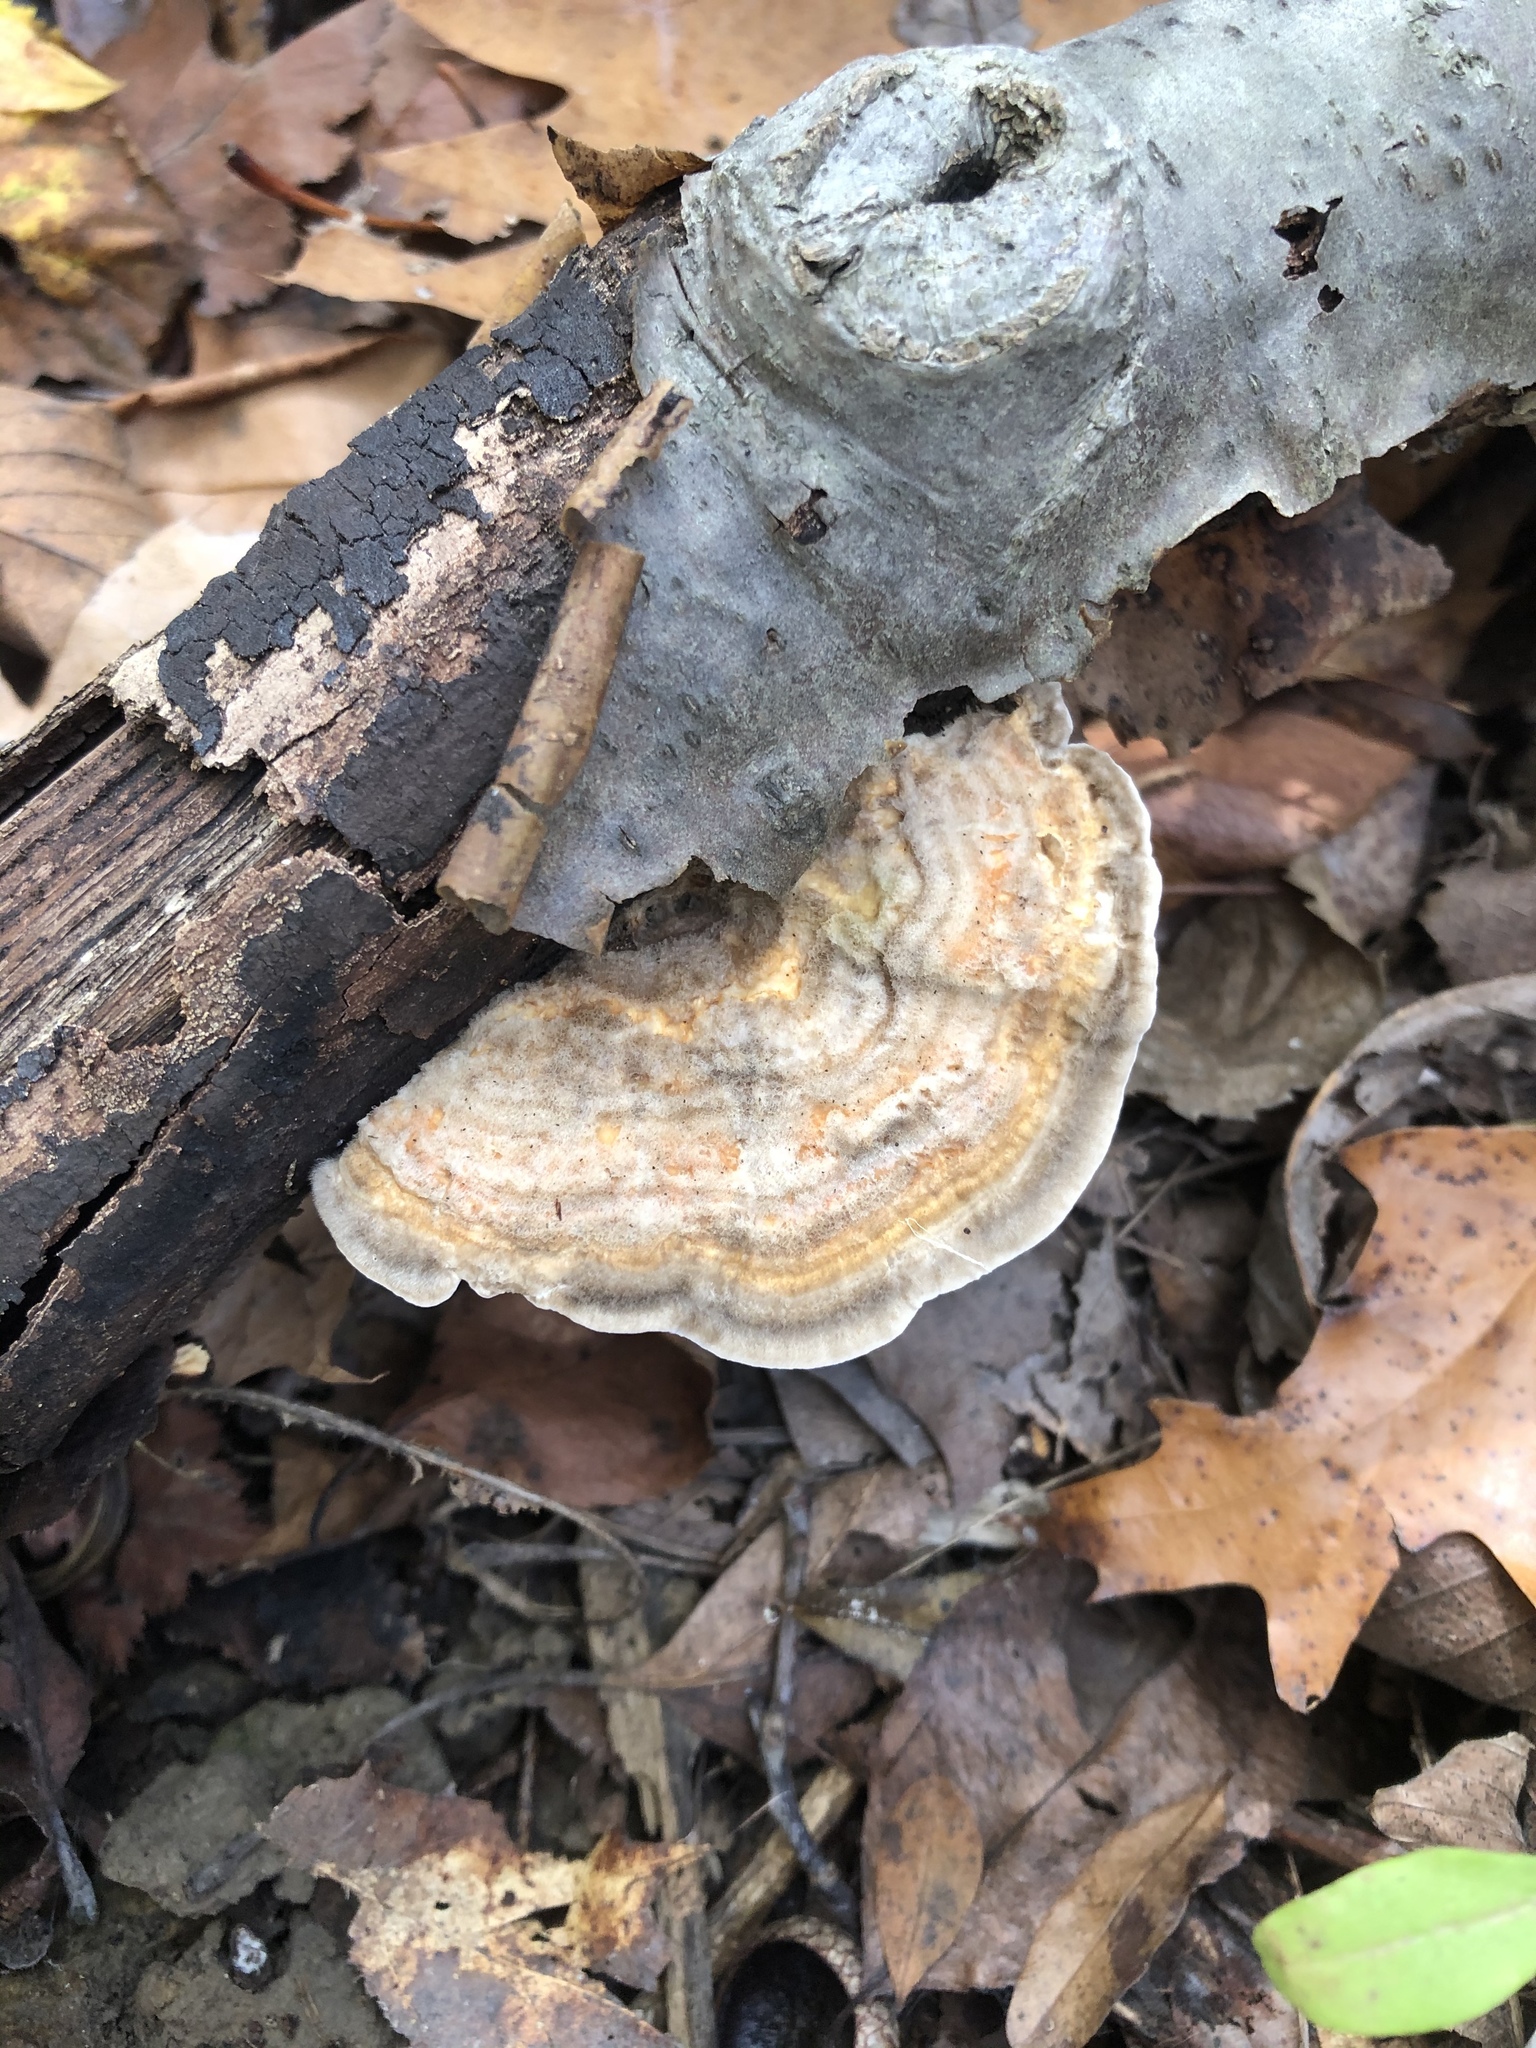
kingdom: Fungi
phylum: Basidiomycota
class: Agaricomycetes
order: Polyporales
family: Polyporaceae
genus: Lenzites
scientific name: Lenzites betulinus
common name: Birch mazegill
